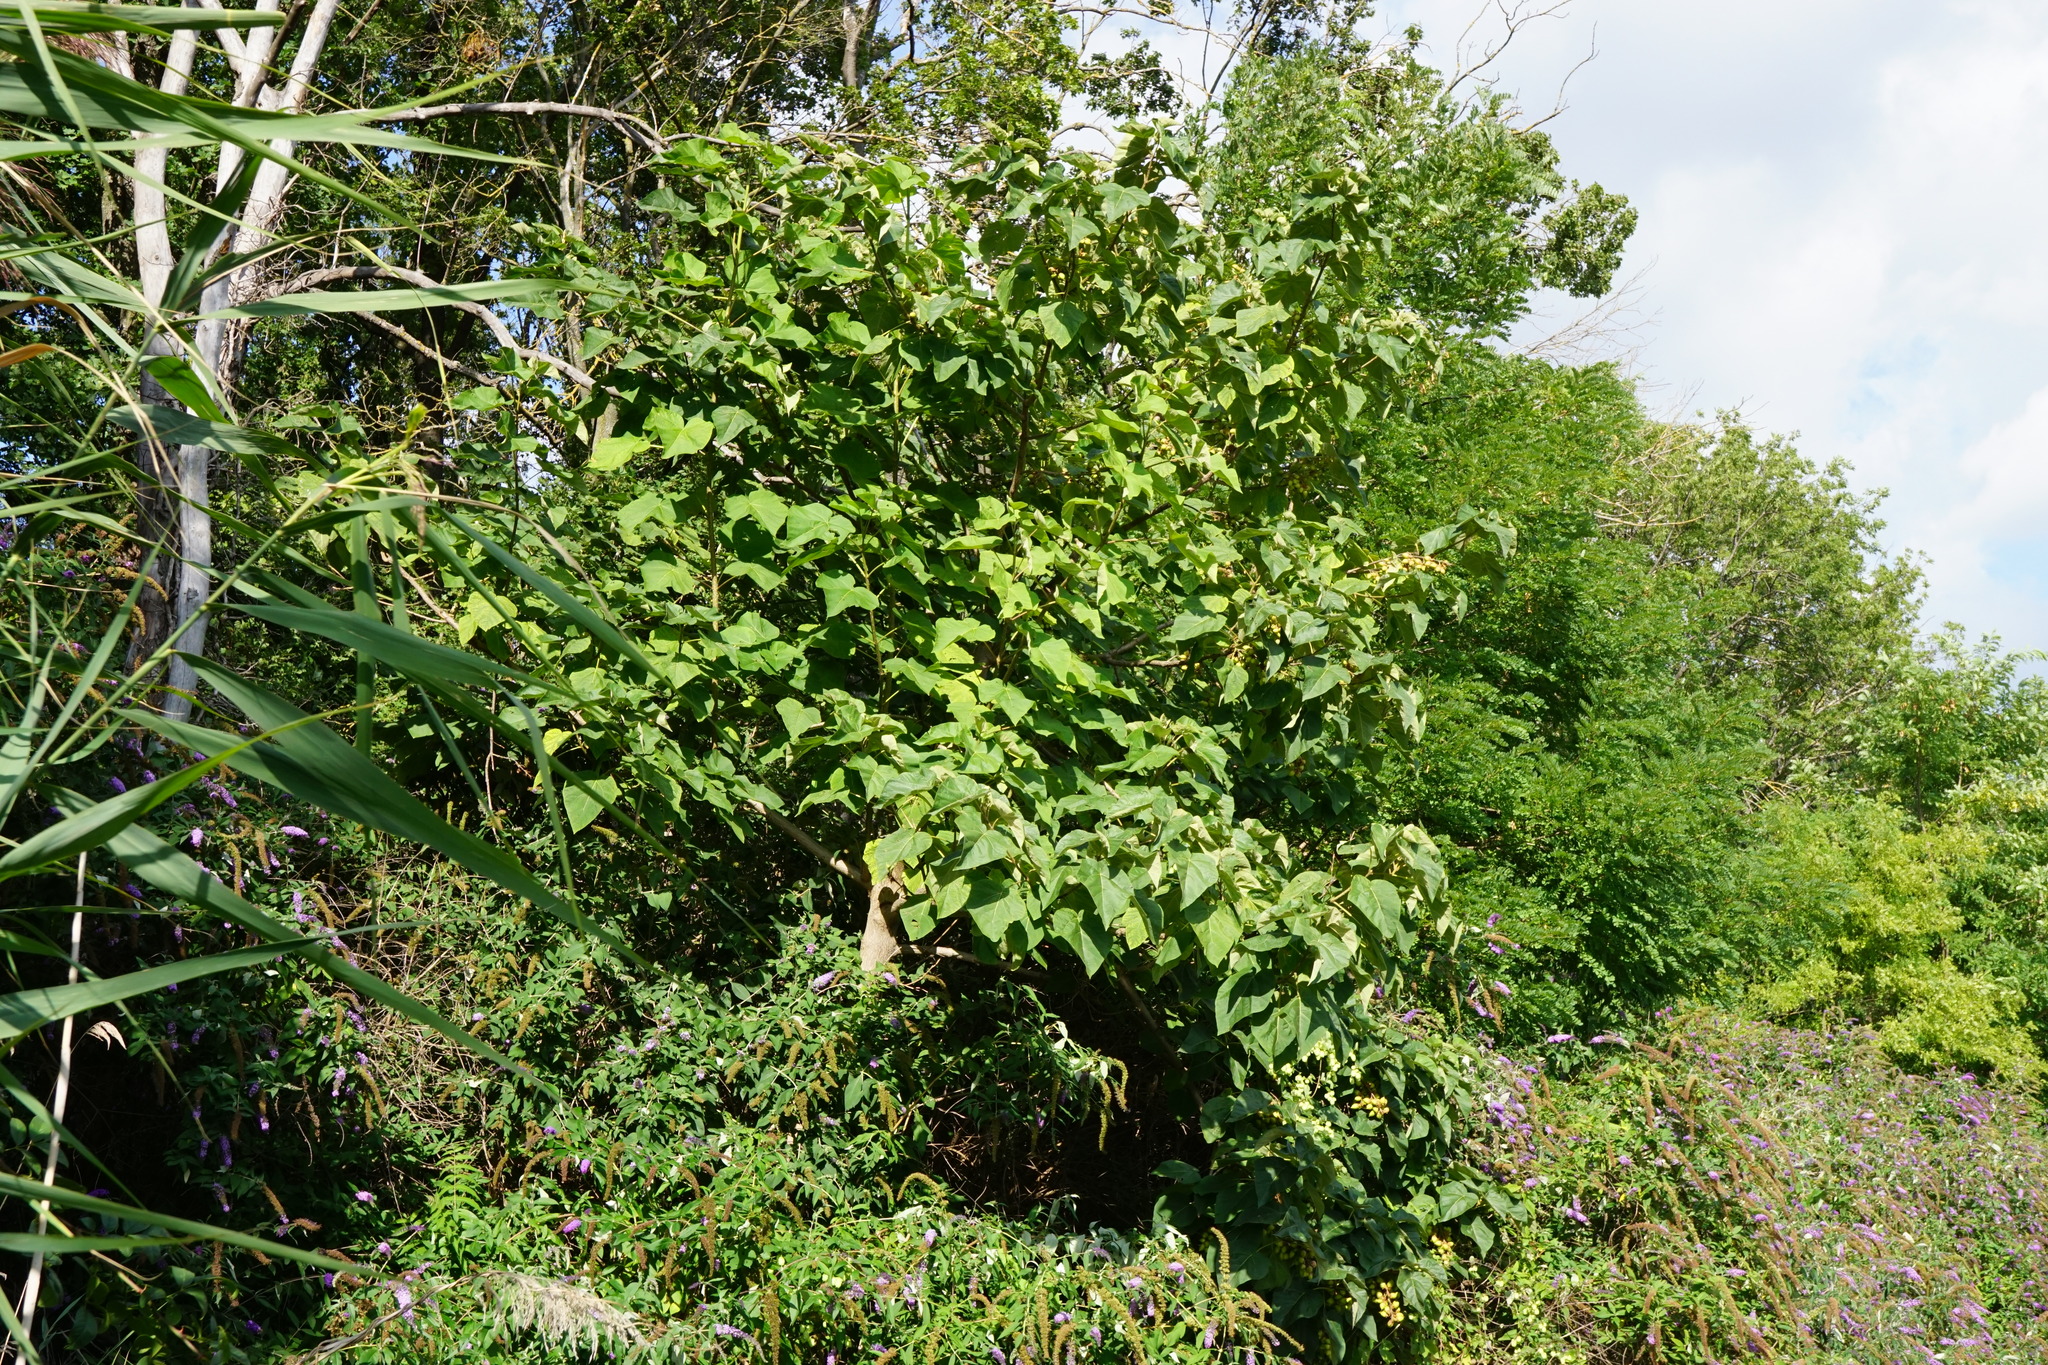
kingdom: Plantae
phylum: Tracheophyta
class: Magnoliopsida
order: Lamiales
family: Paulowniaceae
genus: Paulownia
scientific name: Paulownia tomentosa
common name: Foxglove-tree
